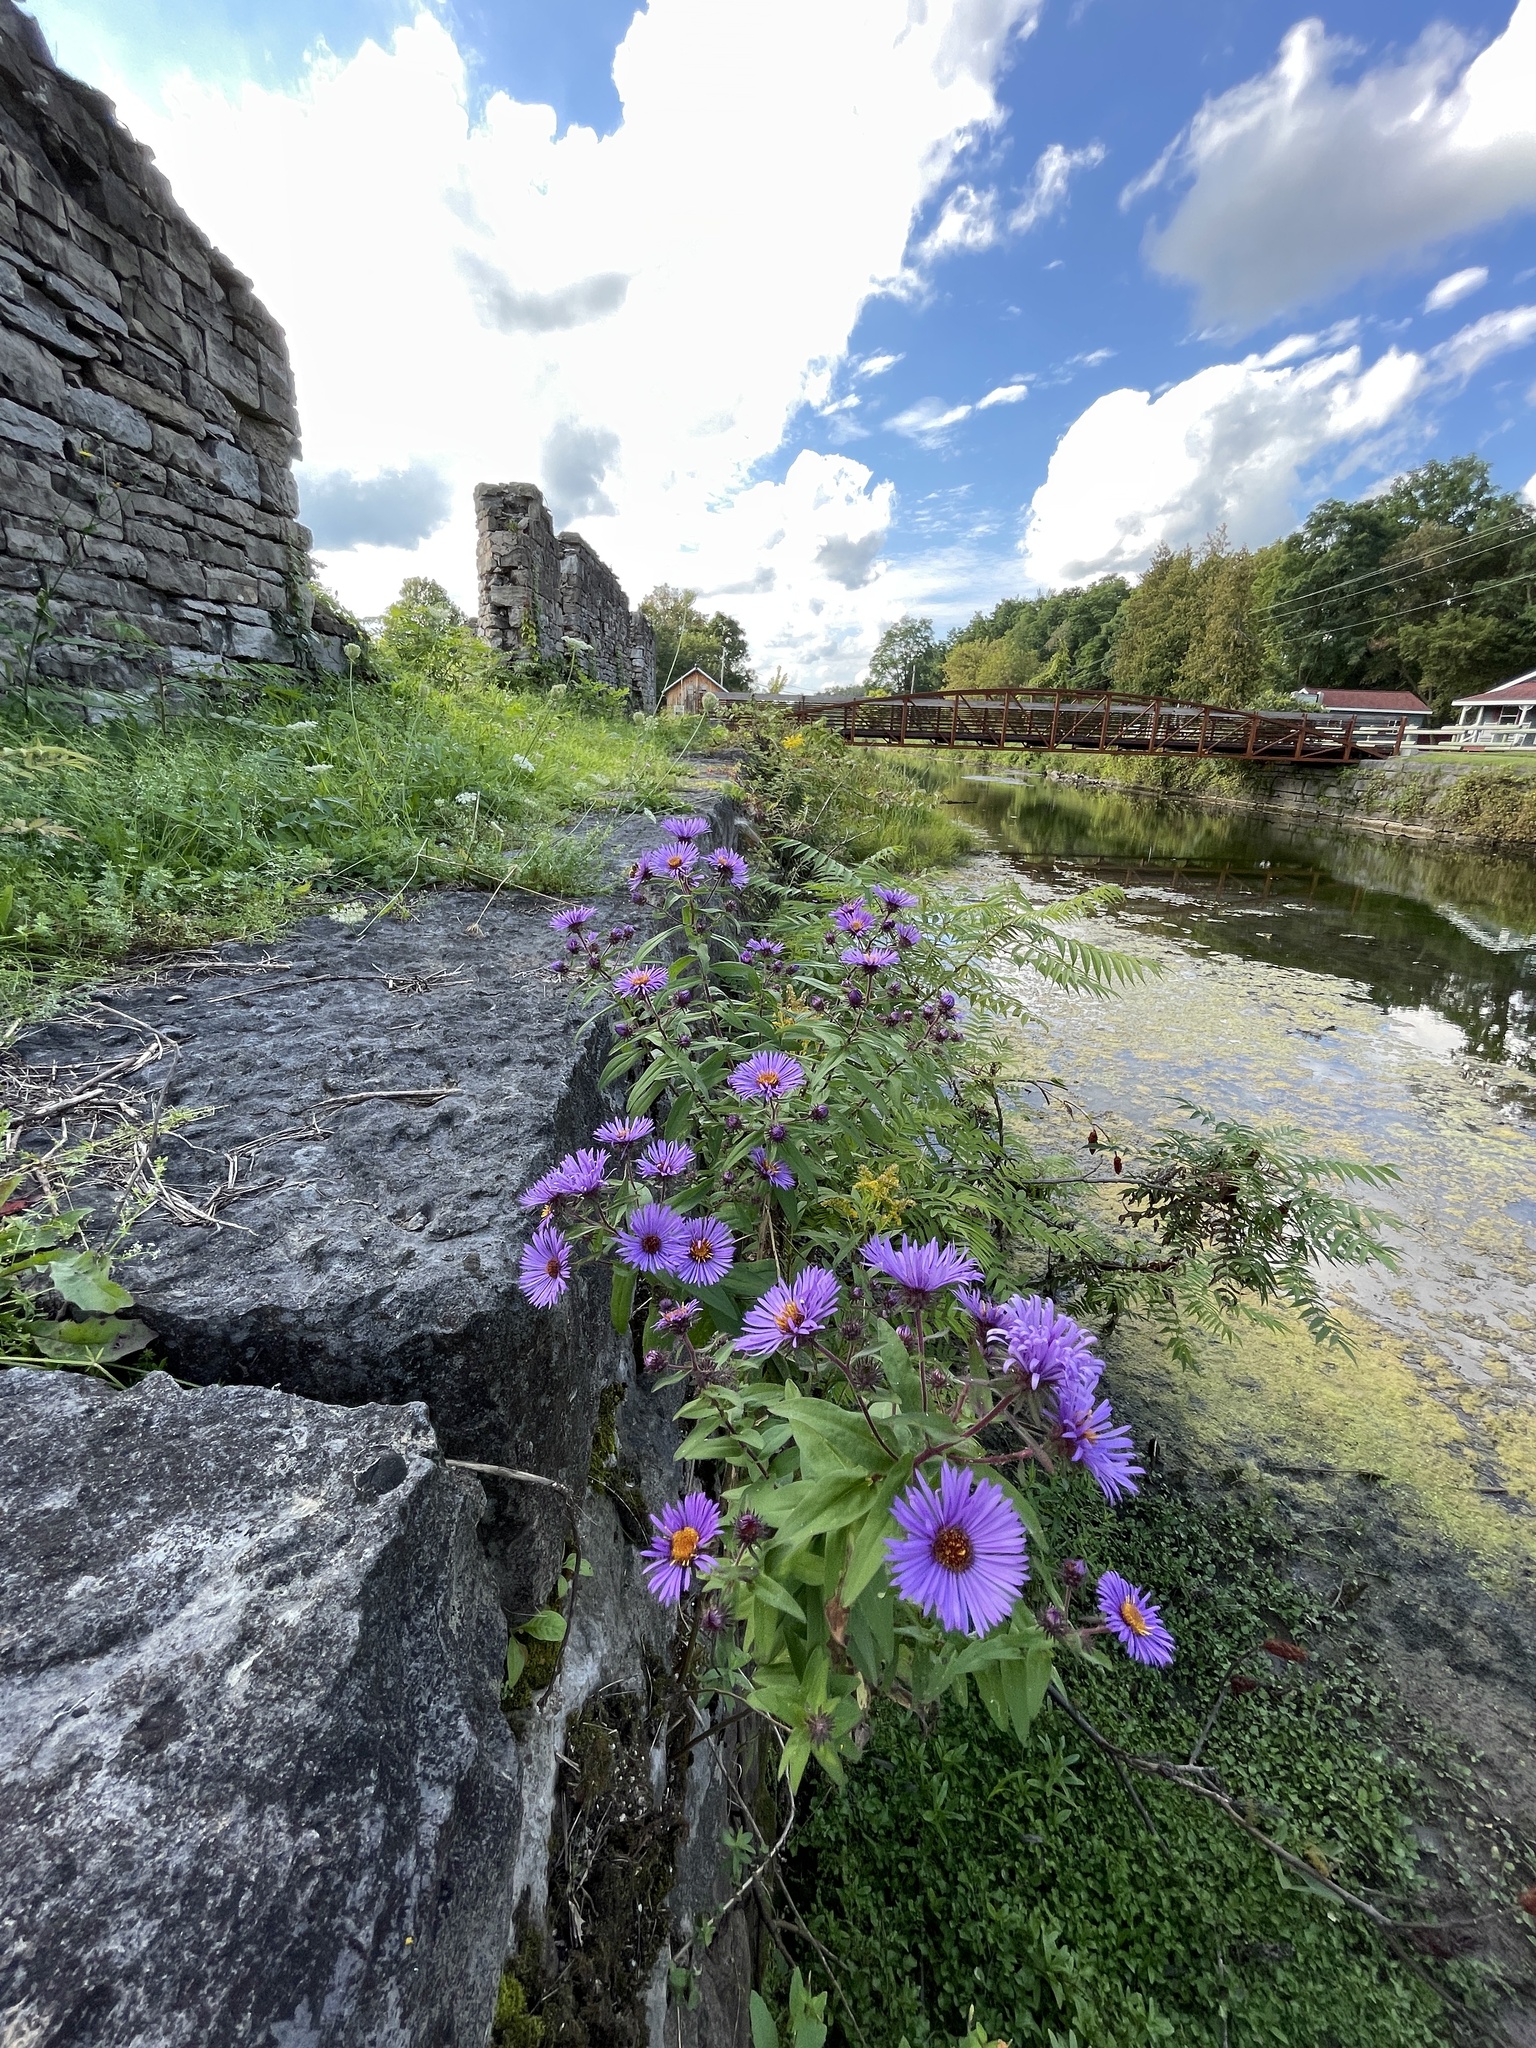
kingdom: Plantae
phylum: Tracheophyta
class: Magnoliopsida
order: Asterales
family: Asteraceae
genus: Symphyotrichum
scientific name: Symphyotrichum novae-angliae
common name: Michaelmas daisy
